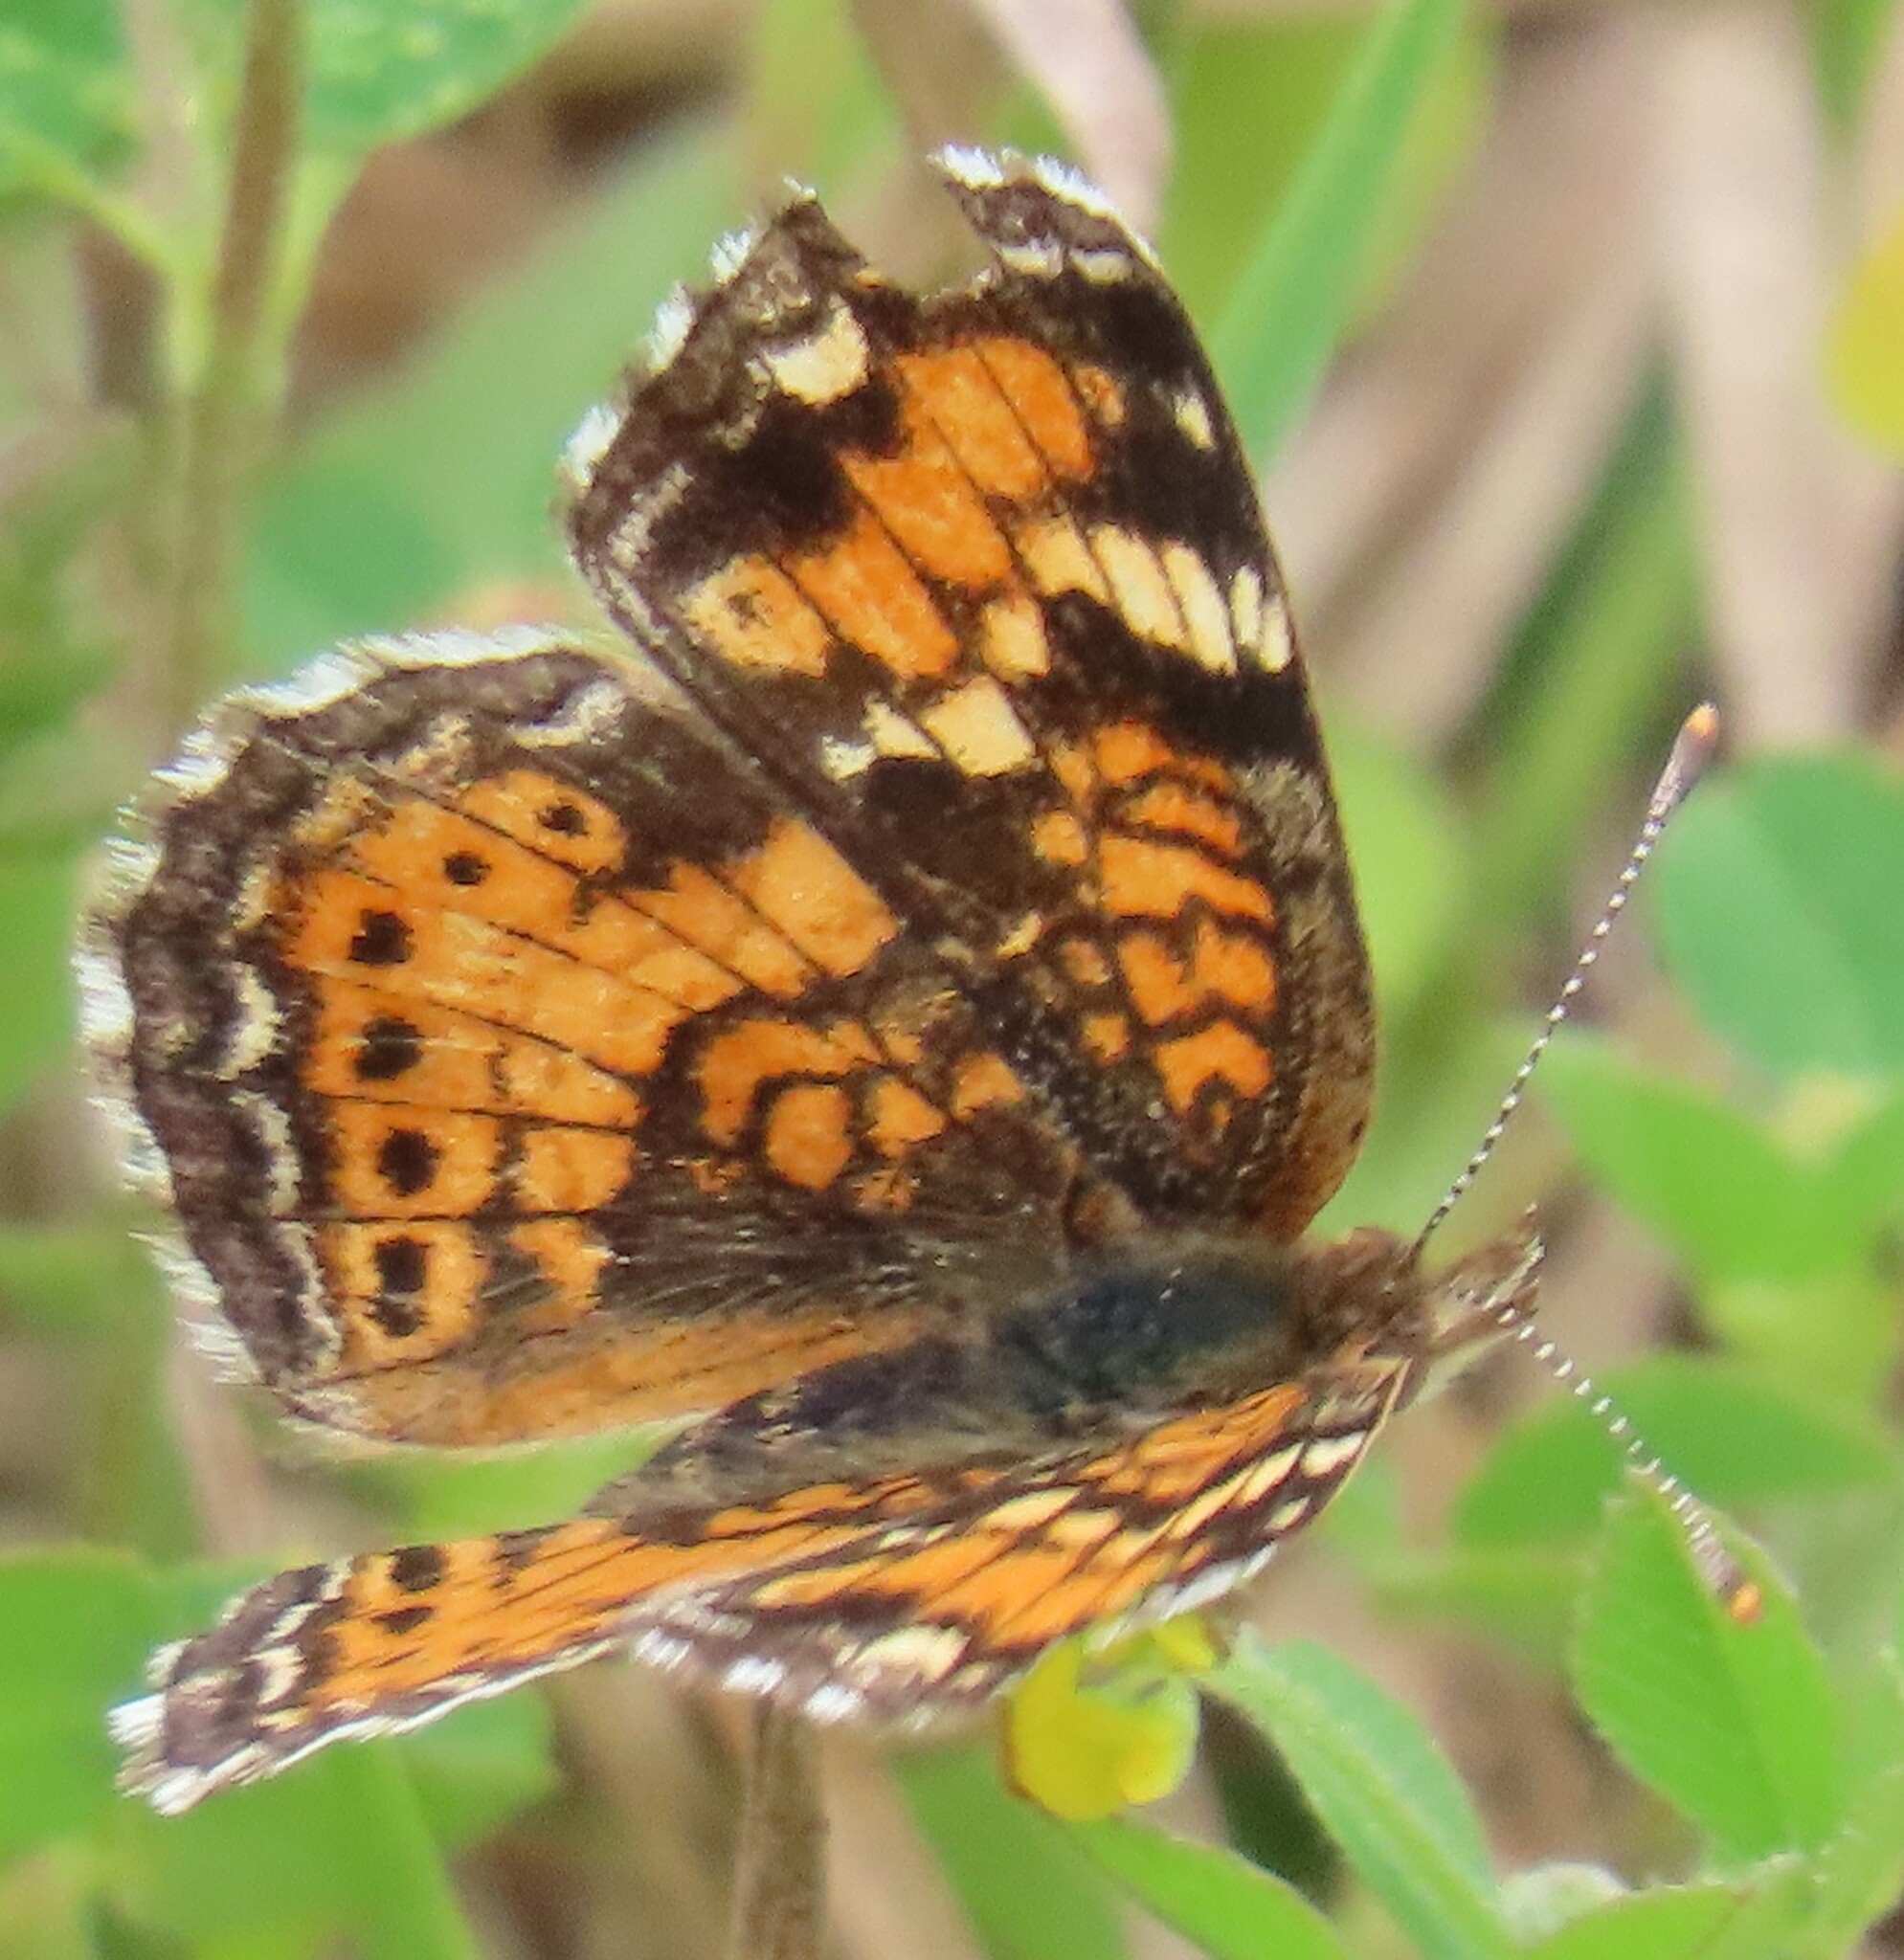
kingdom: Animalia
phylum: Arthropoda
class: Insecta
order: Lepidoptera
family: Nymphalidae
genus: Phyciodes
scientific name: Phyciodes phaon
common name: Phaon crescent
